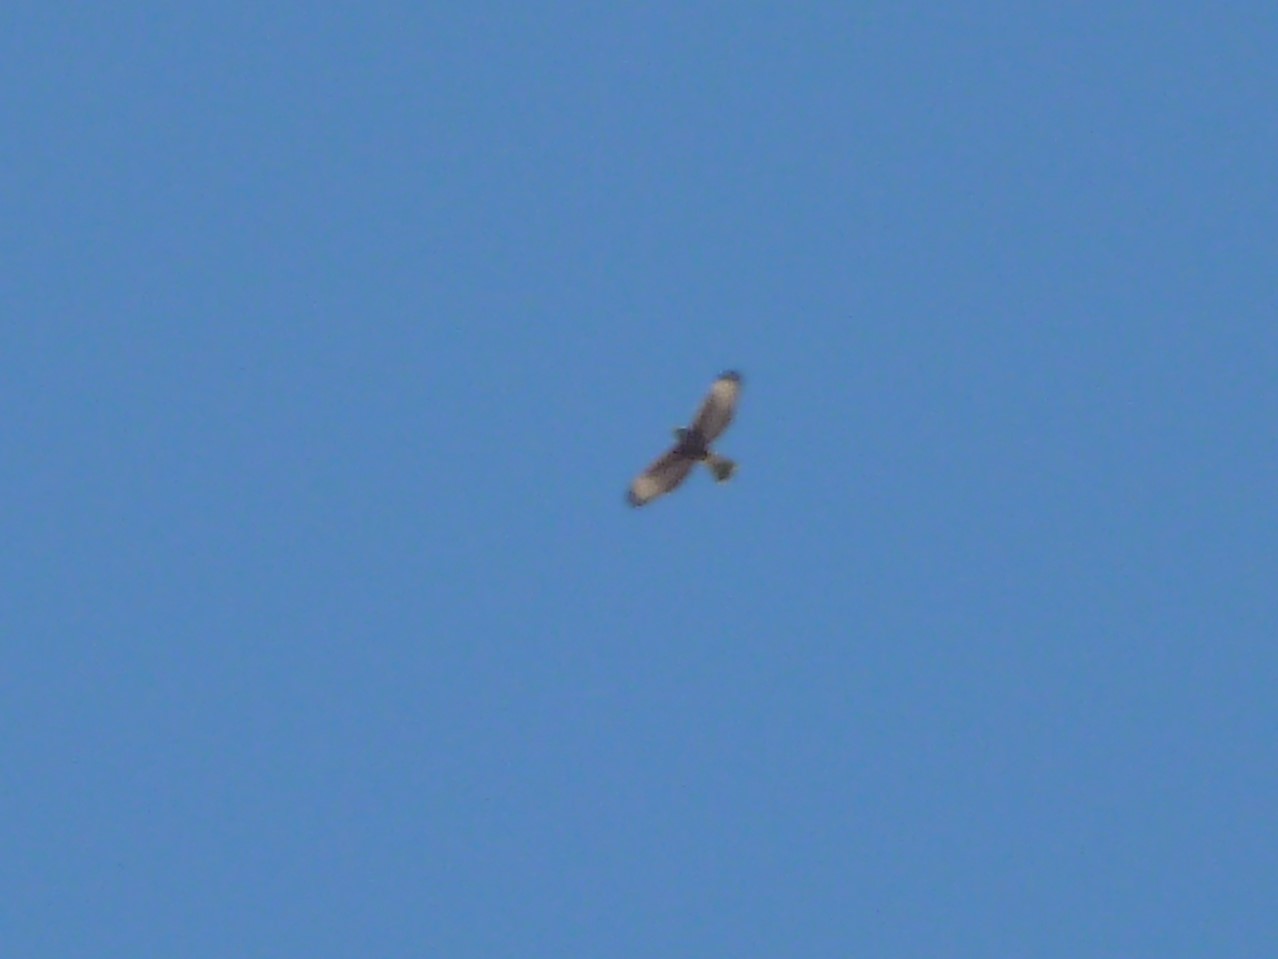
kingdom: Animalia
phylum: Chordata
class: Aves
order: Accipitriformes
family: Accipitridae
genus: Parabuteo
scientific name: Parabuteo unicinctus
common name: Harris's hawk
